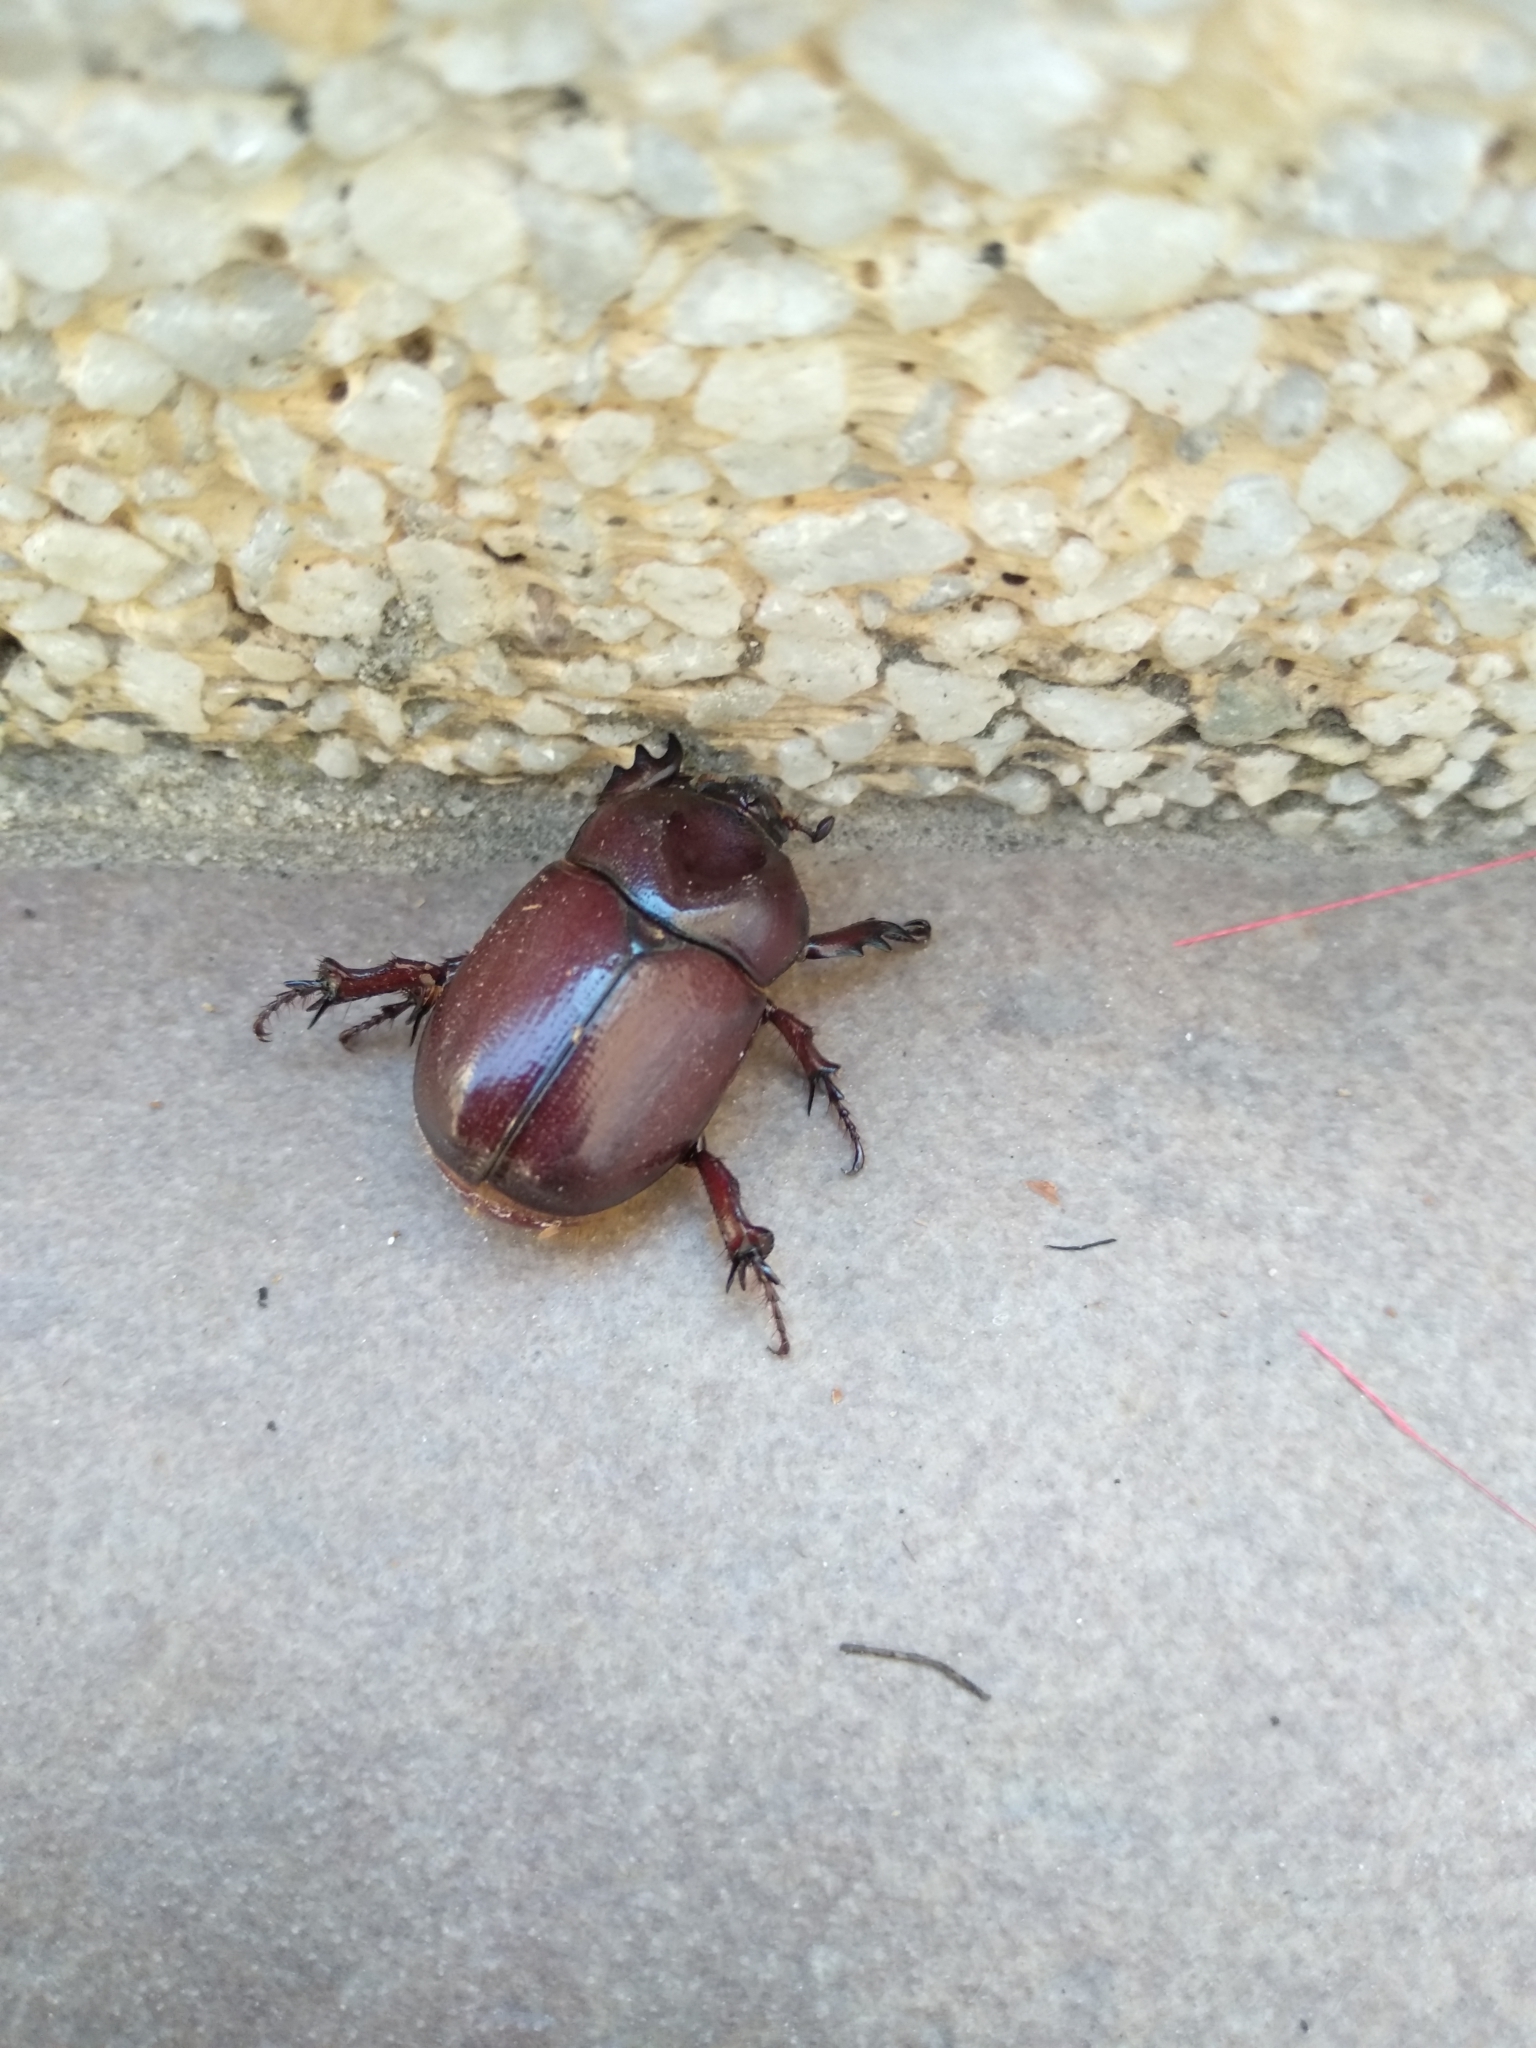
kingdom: Animalia
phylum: Arthropoda
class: Insecta
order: Coleoptera
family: Scarabaeidae
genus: Phyllognathus
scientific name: Phyllognathus excavatus
